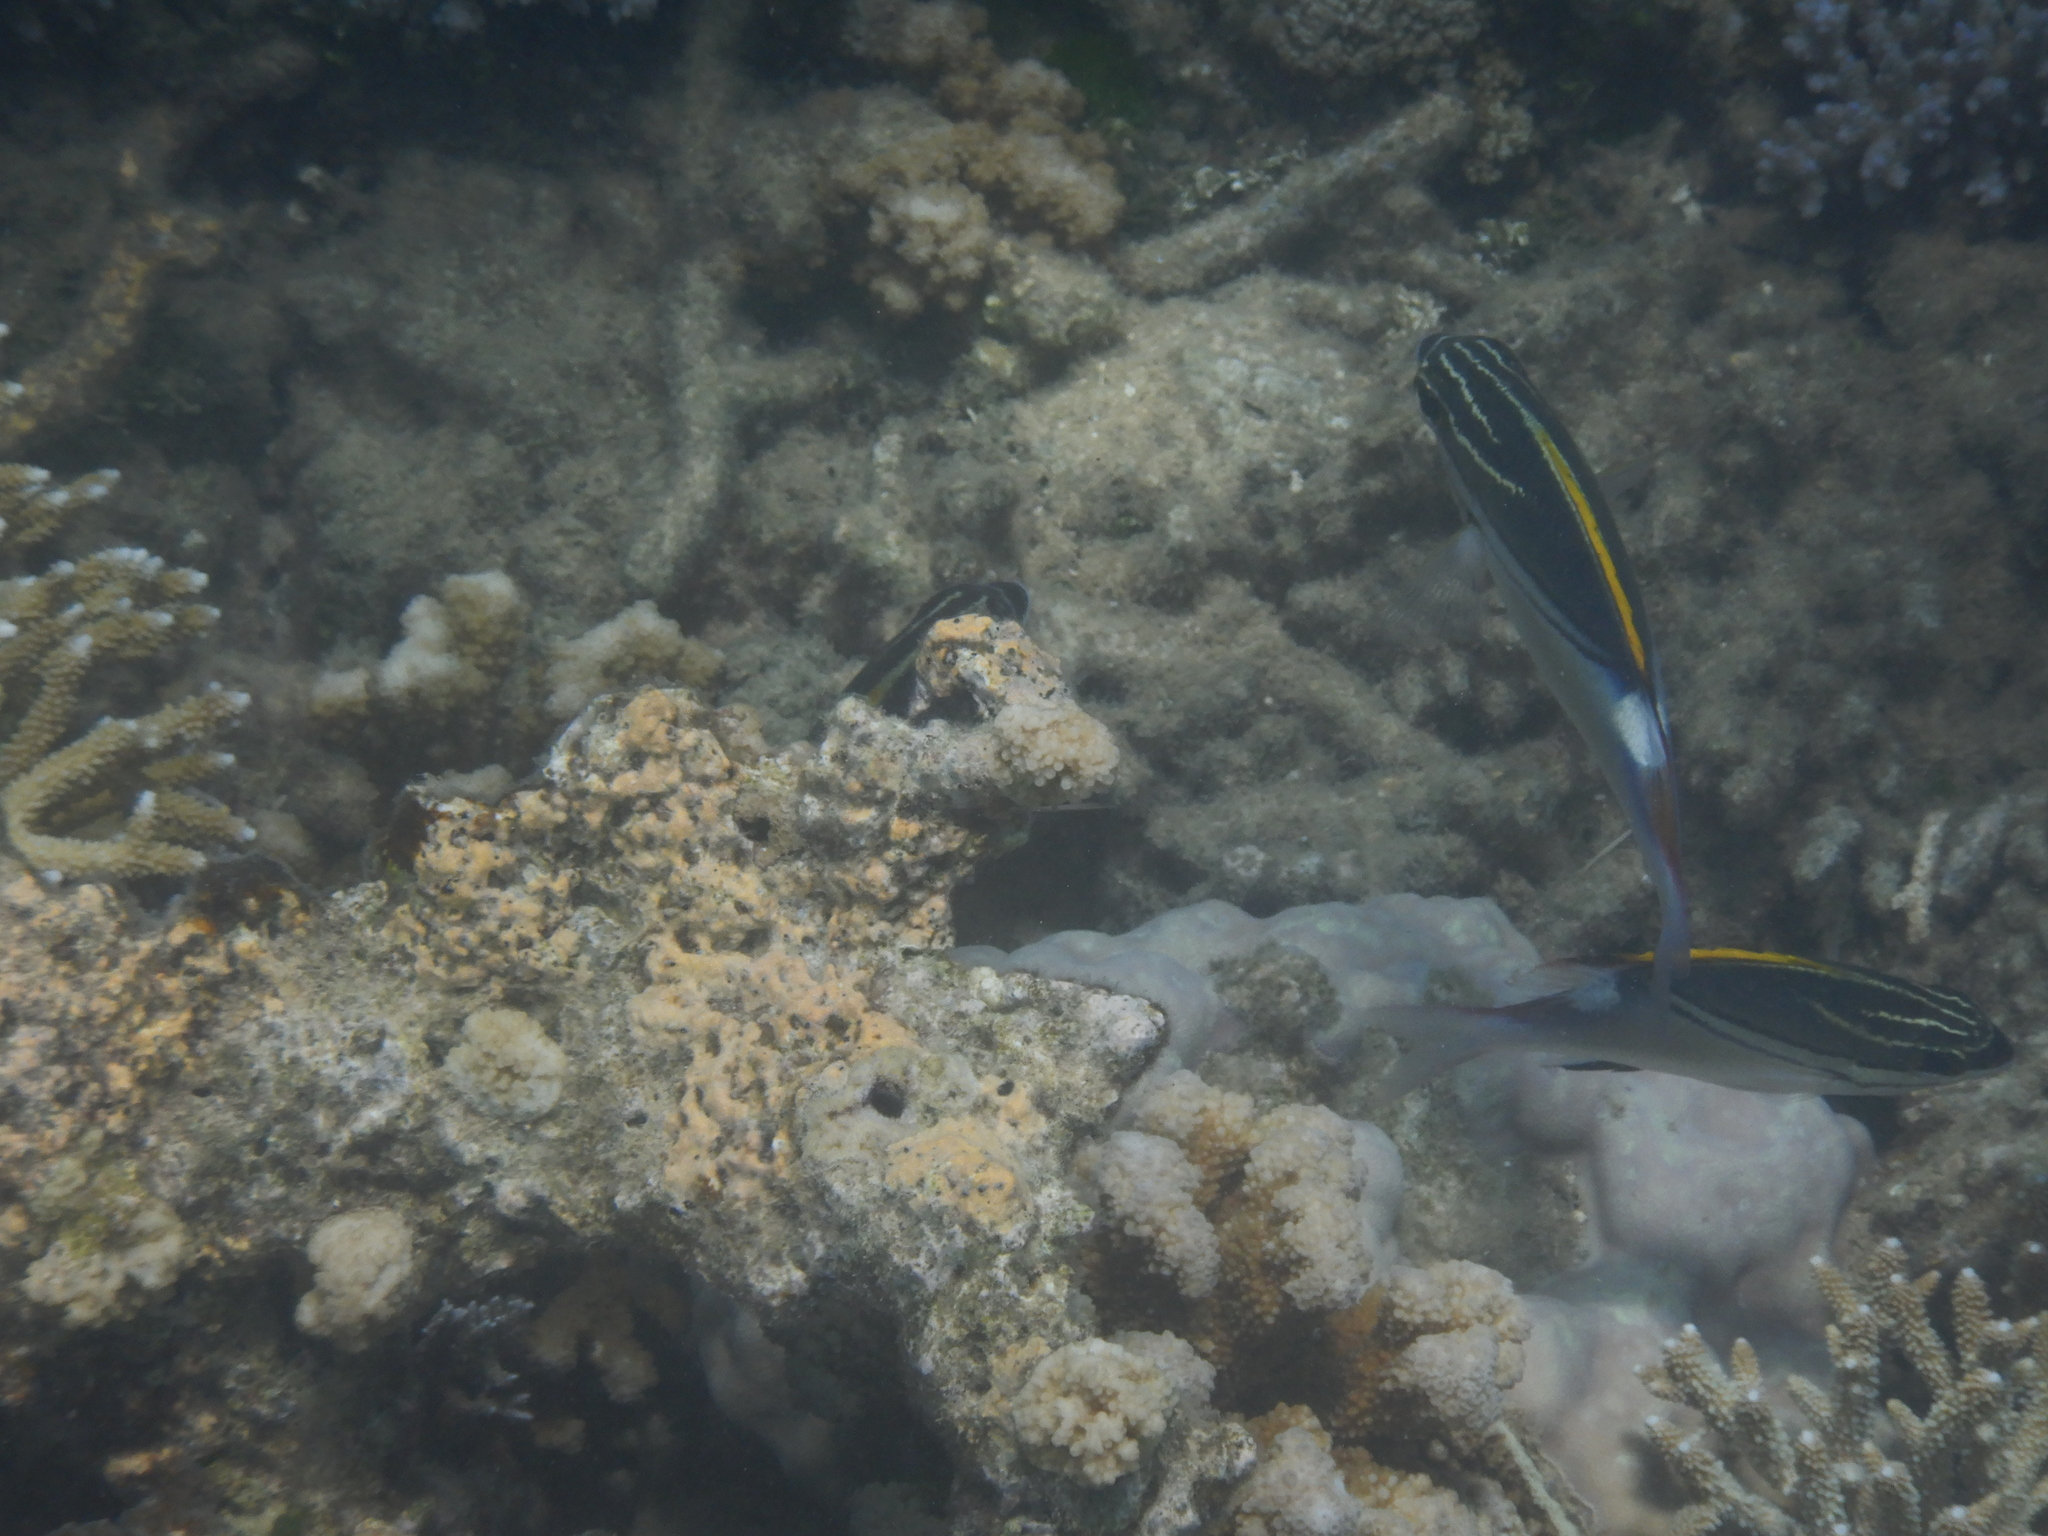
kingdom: Animalia
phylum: Chordata
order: Perciformes
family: Nemipteridae
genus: Scolopsis
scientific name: Scolopsis bilineata
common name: Two-lined monocle bream
